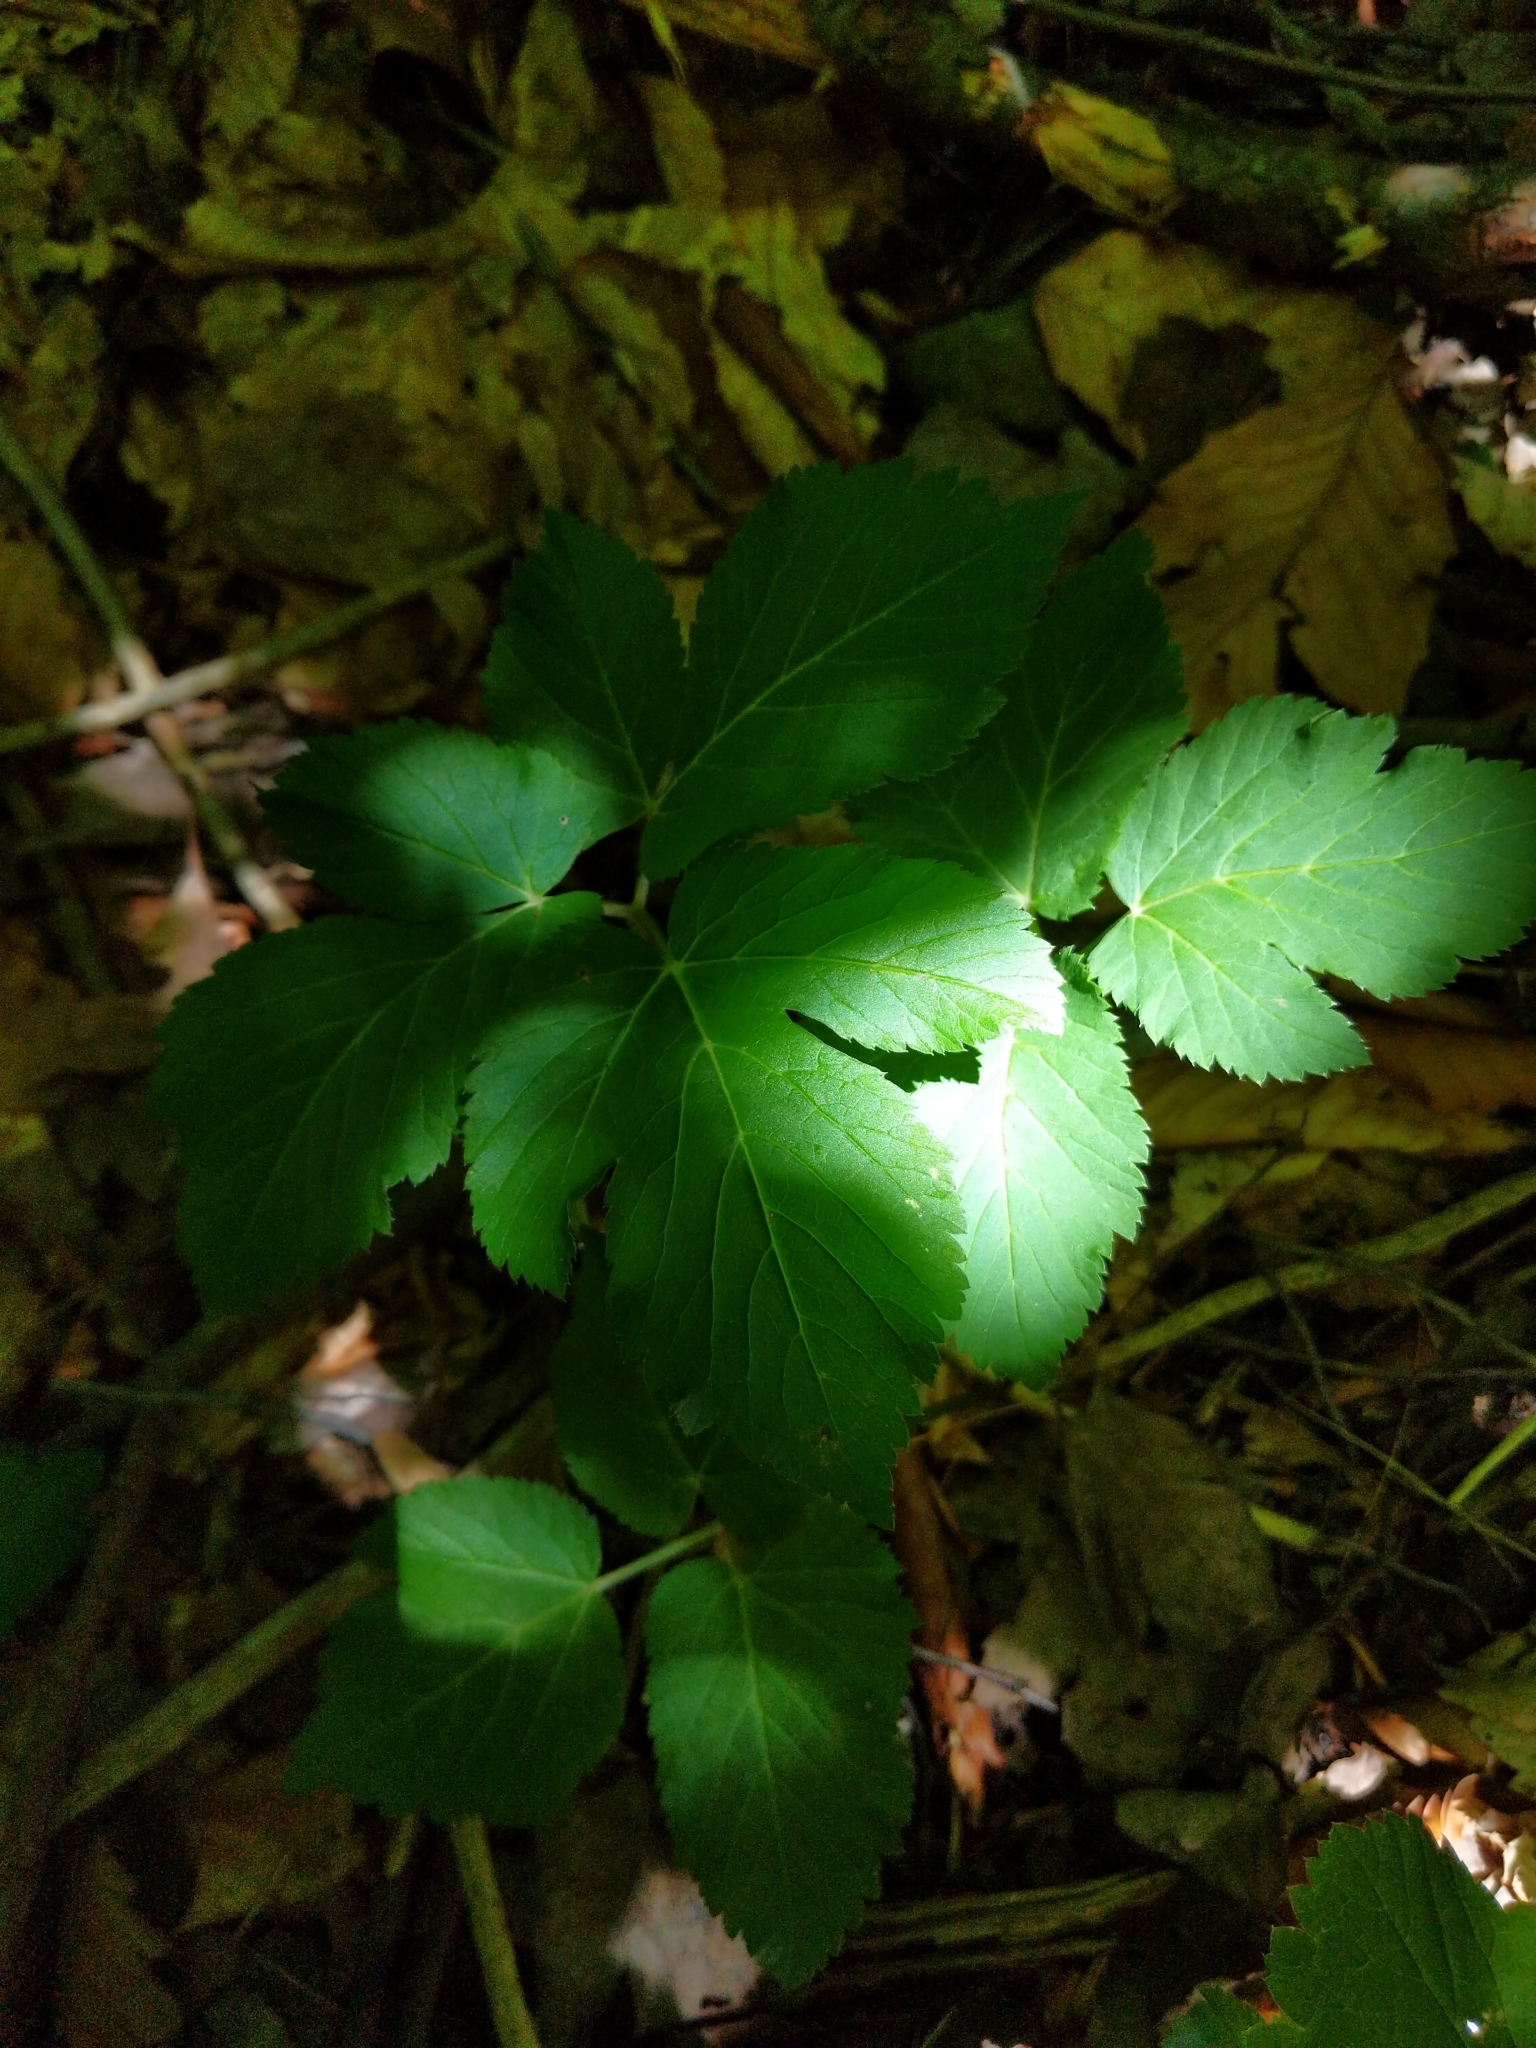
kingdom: Plantae
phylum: Tracheophyta
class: Magnoliopsida
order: Apiales
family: Apiaceae
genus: Aegopodium
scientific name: Aegopodium podagraria
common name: Ground-elder
